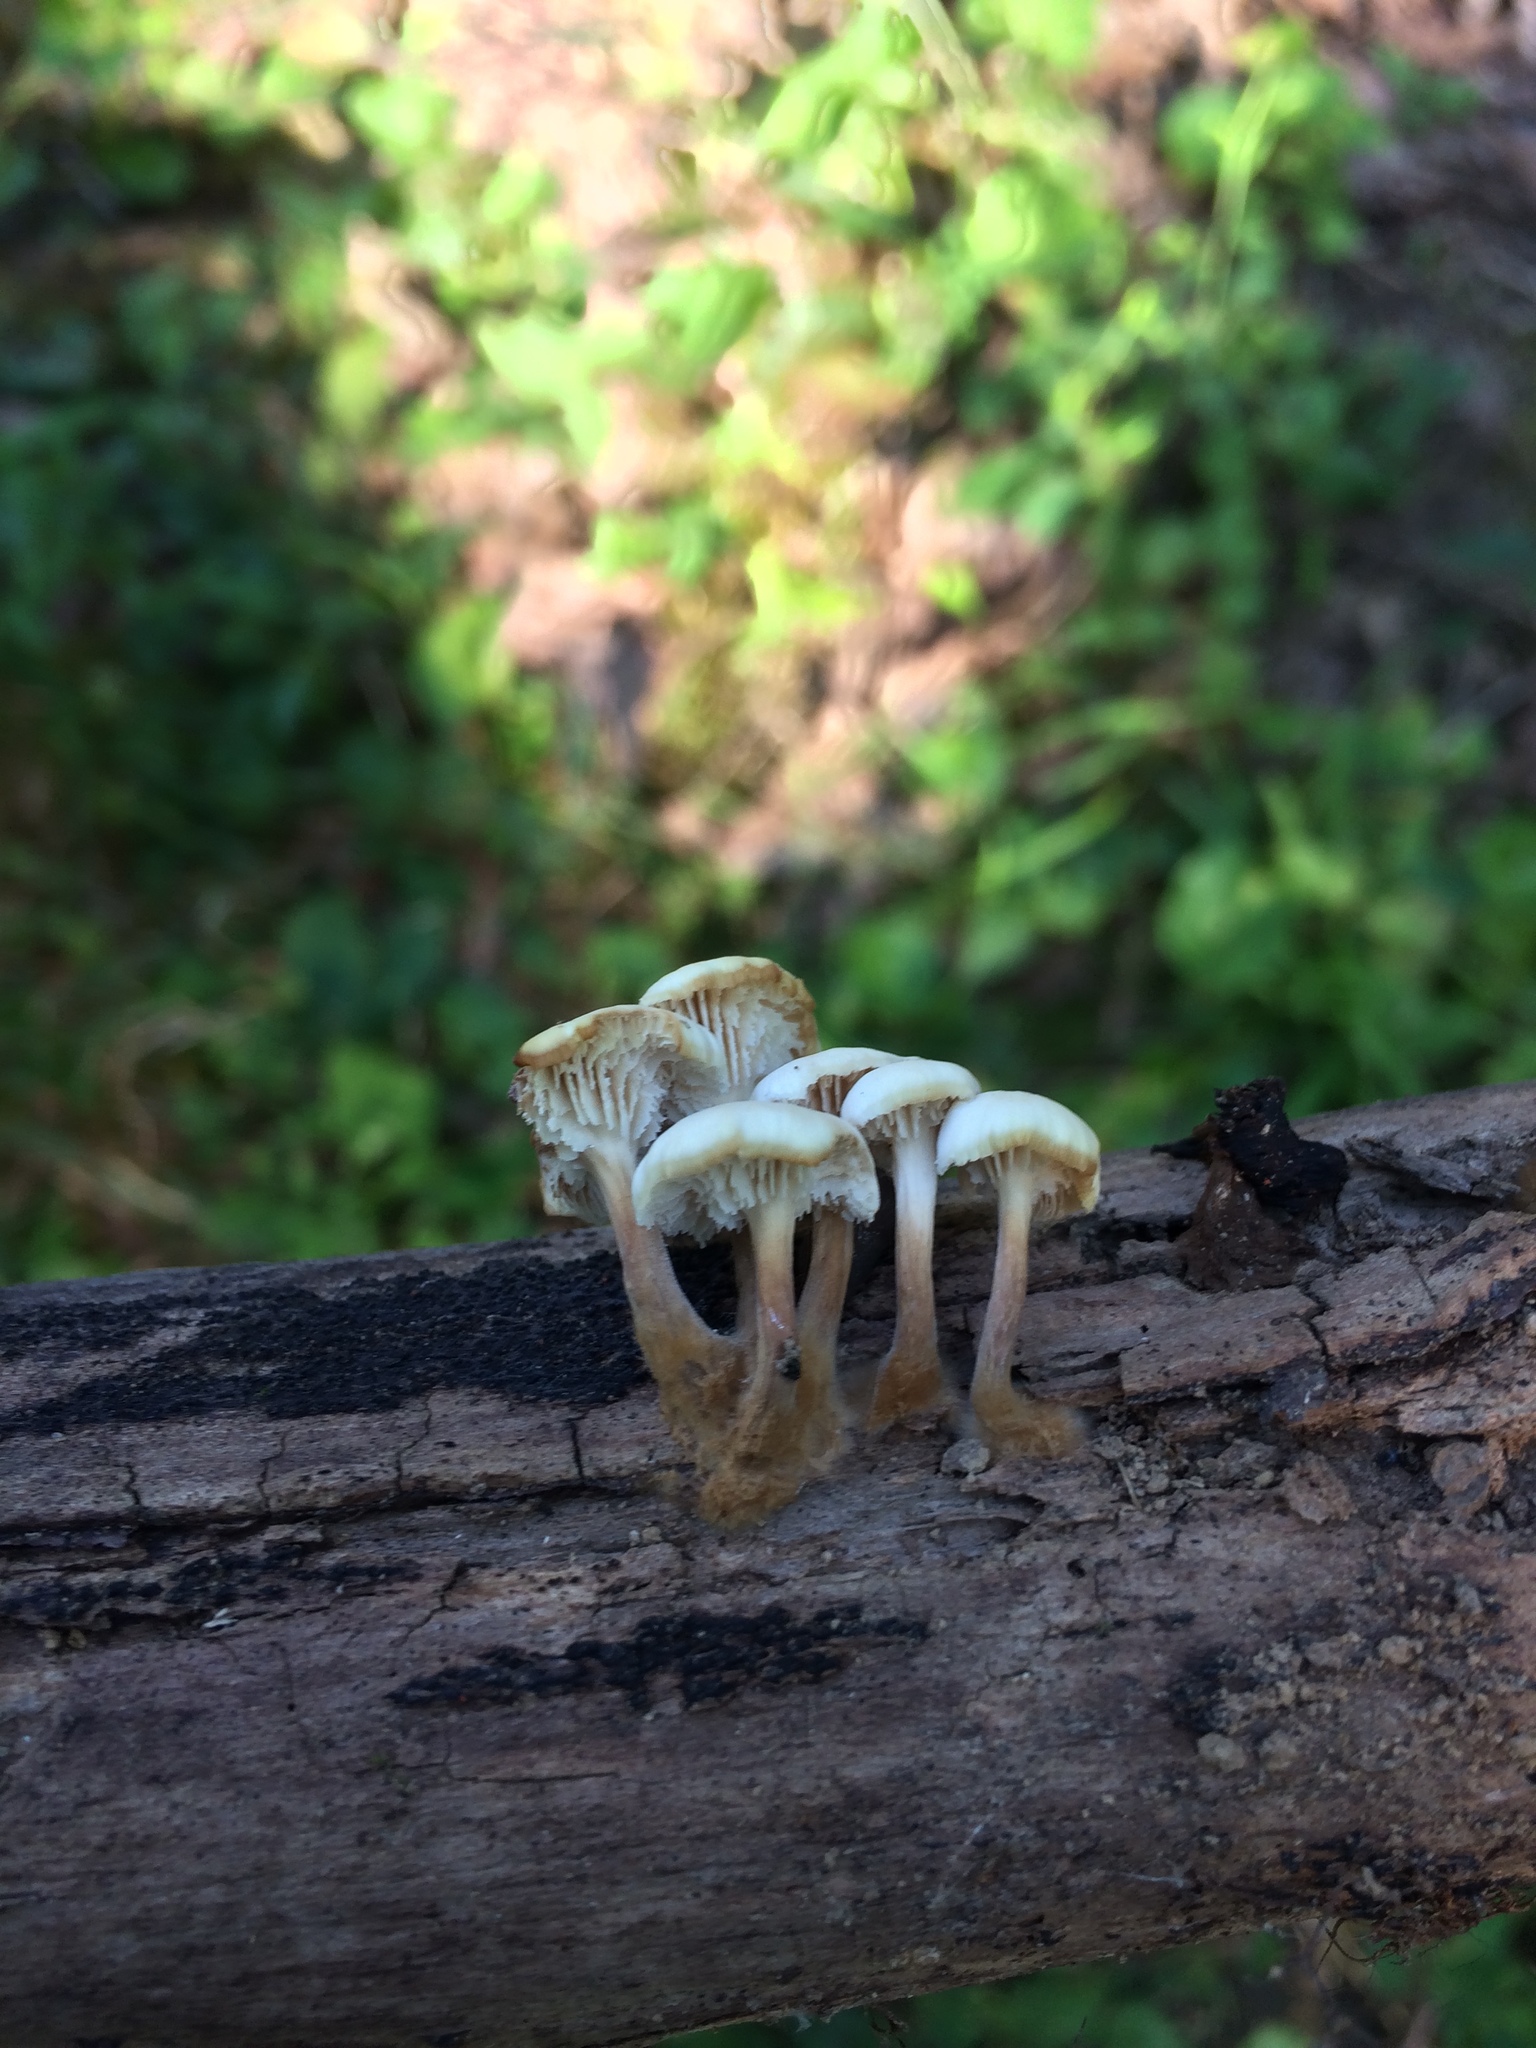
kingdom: Fungi
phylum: Basidiomycota
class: Agaricomycetes
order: Russulales
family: Auriscalpiaceae
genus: Lentinellus
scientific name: Lentinellus subaustralis
